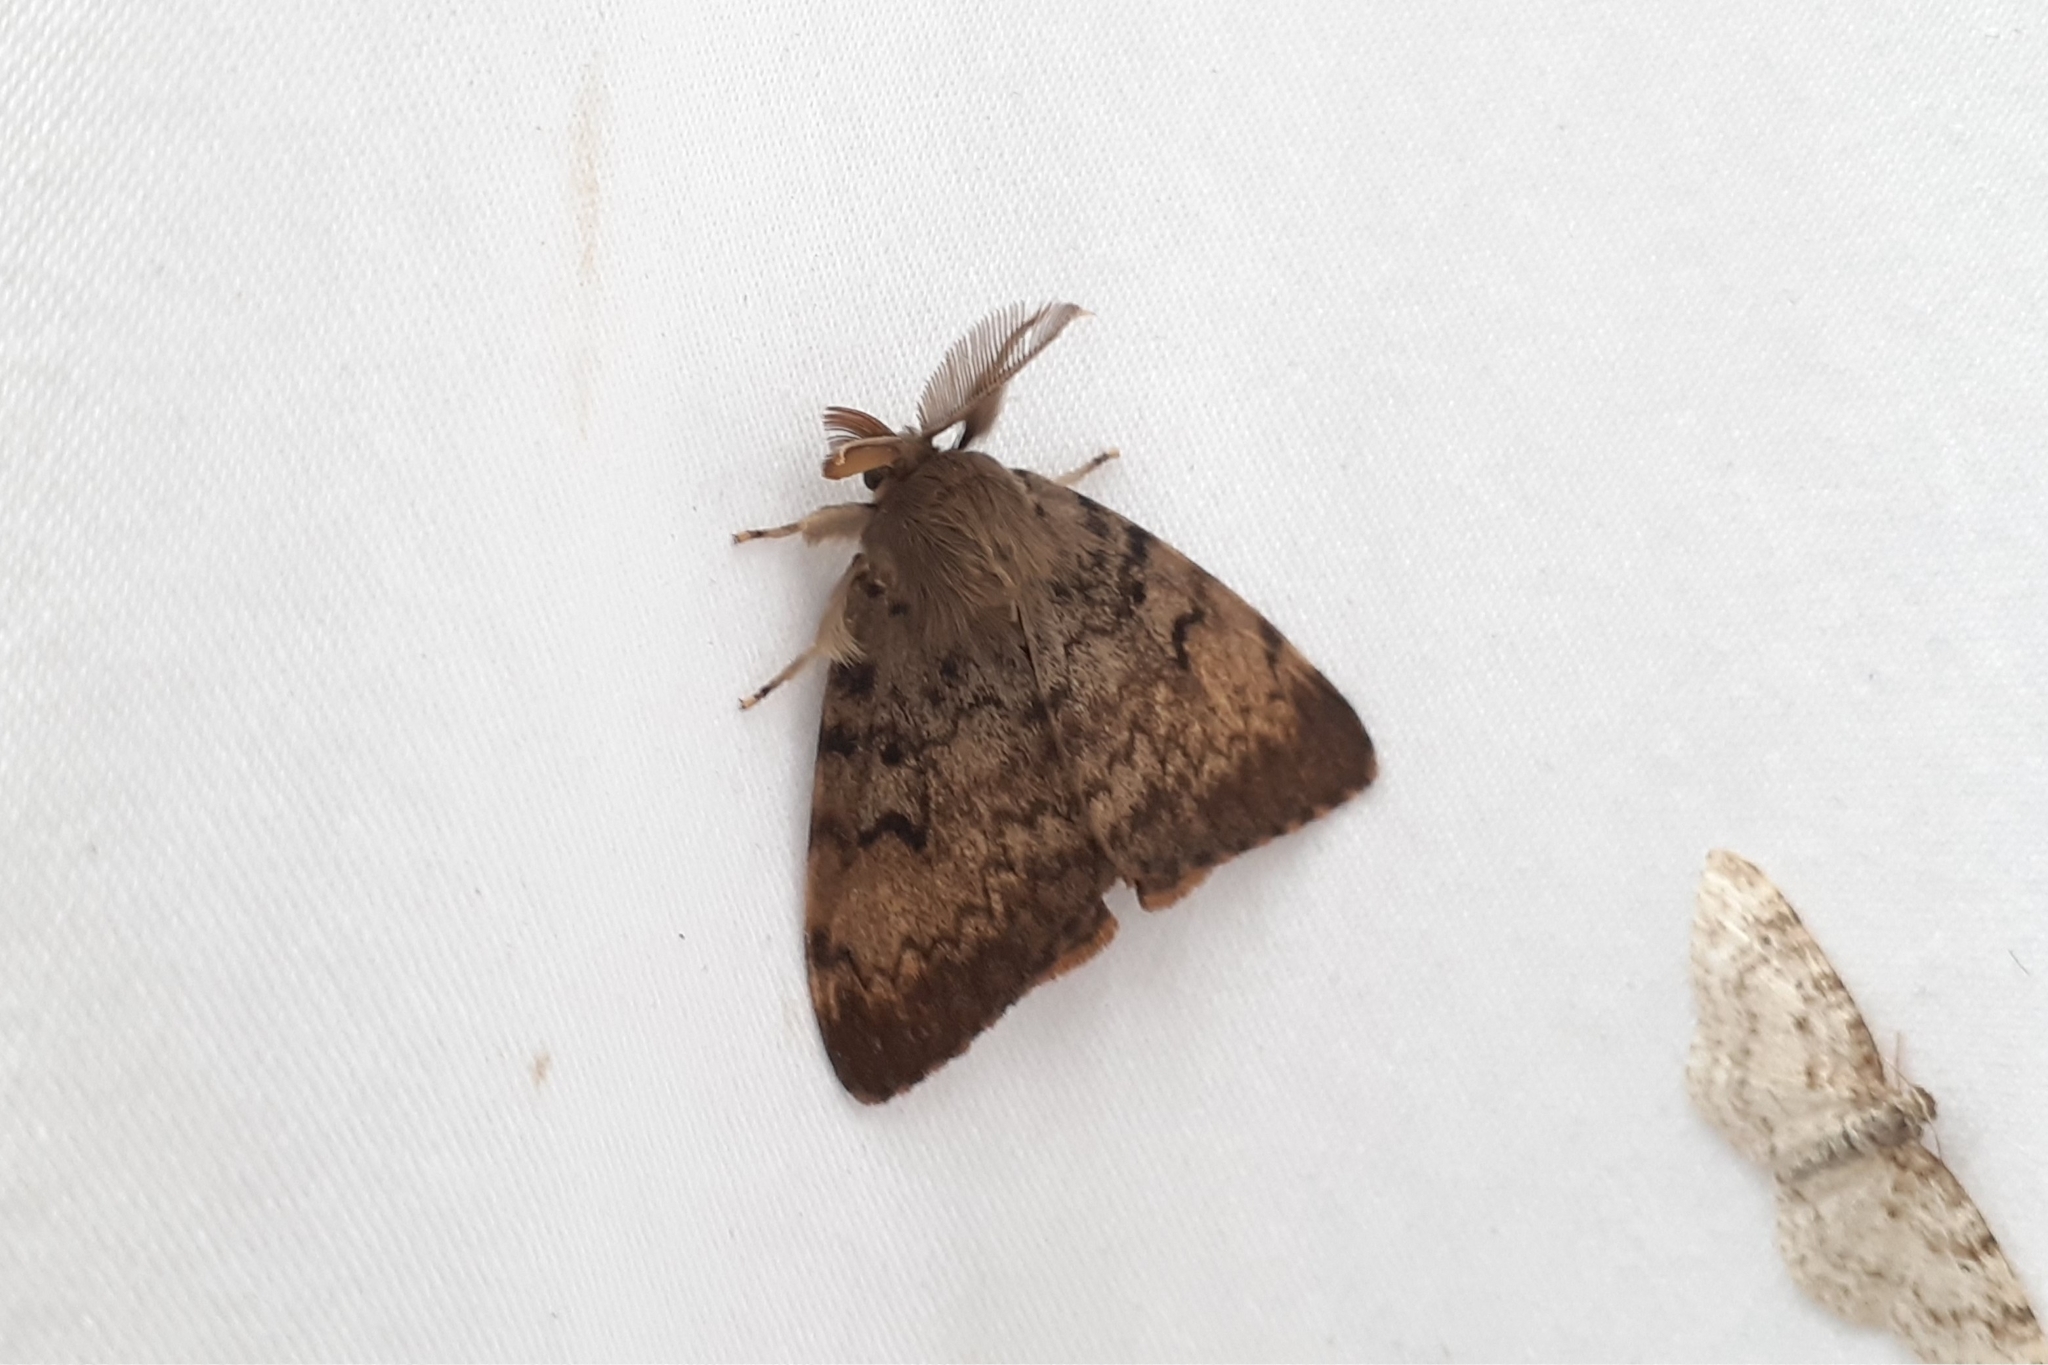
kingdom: Animalia
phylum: Arthropoda
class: Insecta
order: Lepidoptera
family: Erebidae
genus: Lymantria
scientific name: Lymantria dispar
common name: Gypsy moth
